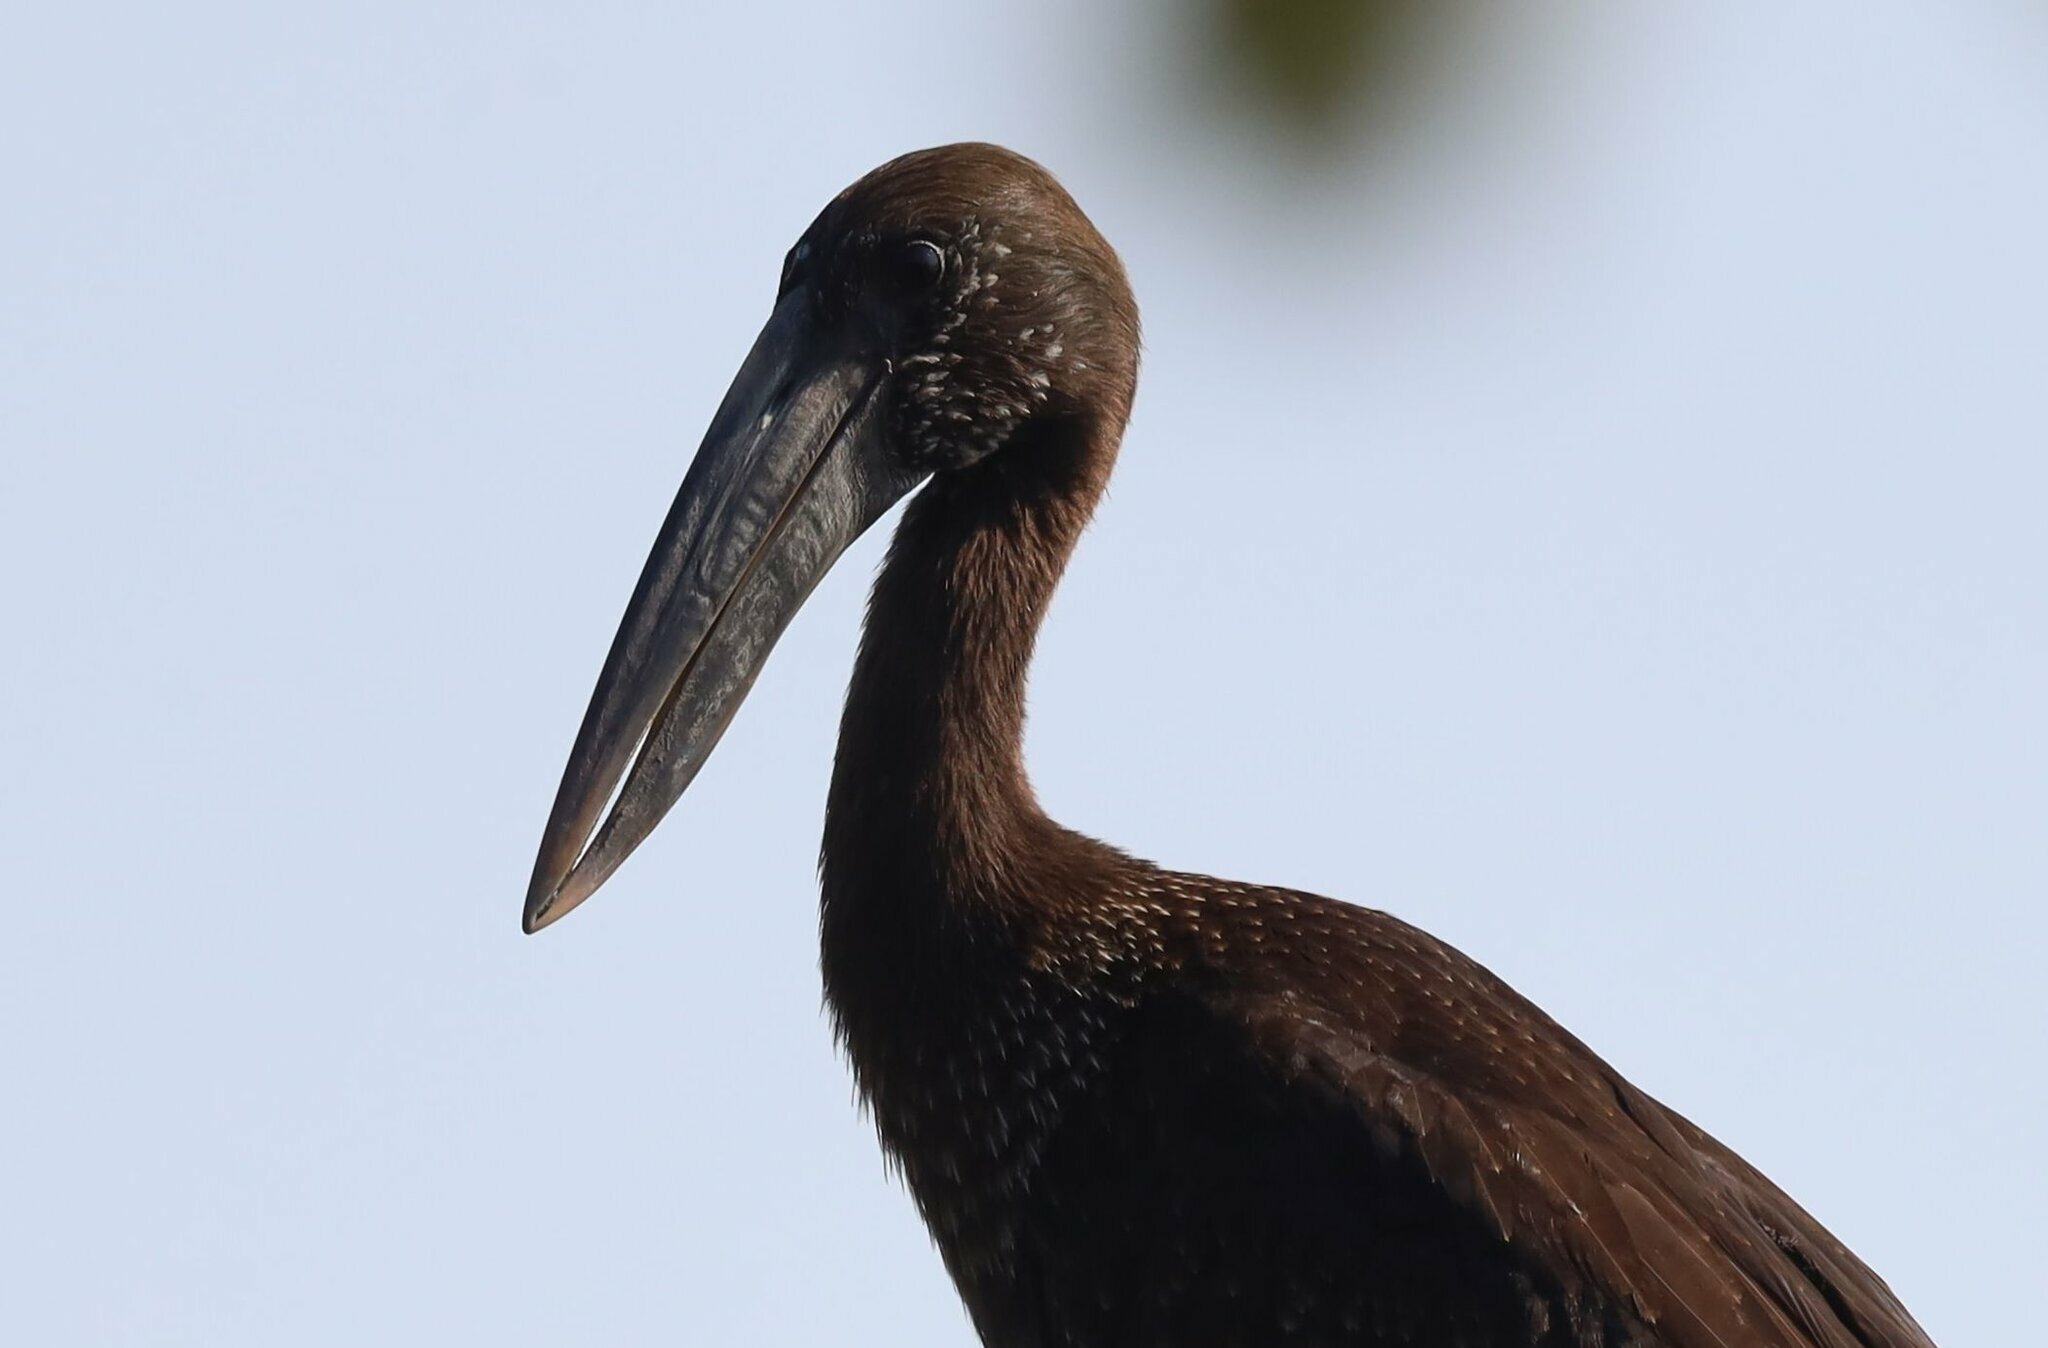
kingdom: Animalia
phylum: Chordata
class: Aves
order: Ciconiiformes
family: Ciconiidae
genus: Anastomus
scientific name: Anastomus lamelligerus
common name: African openbill
